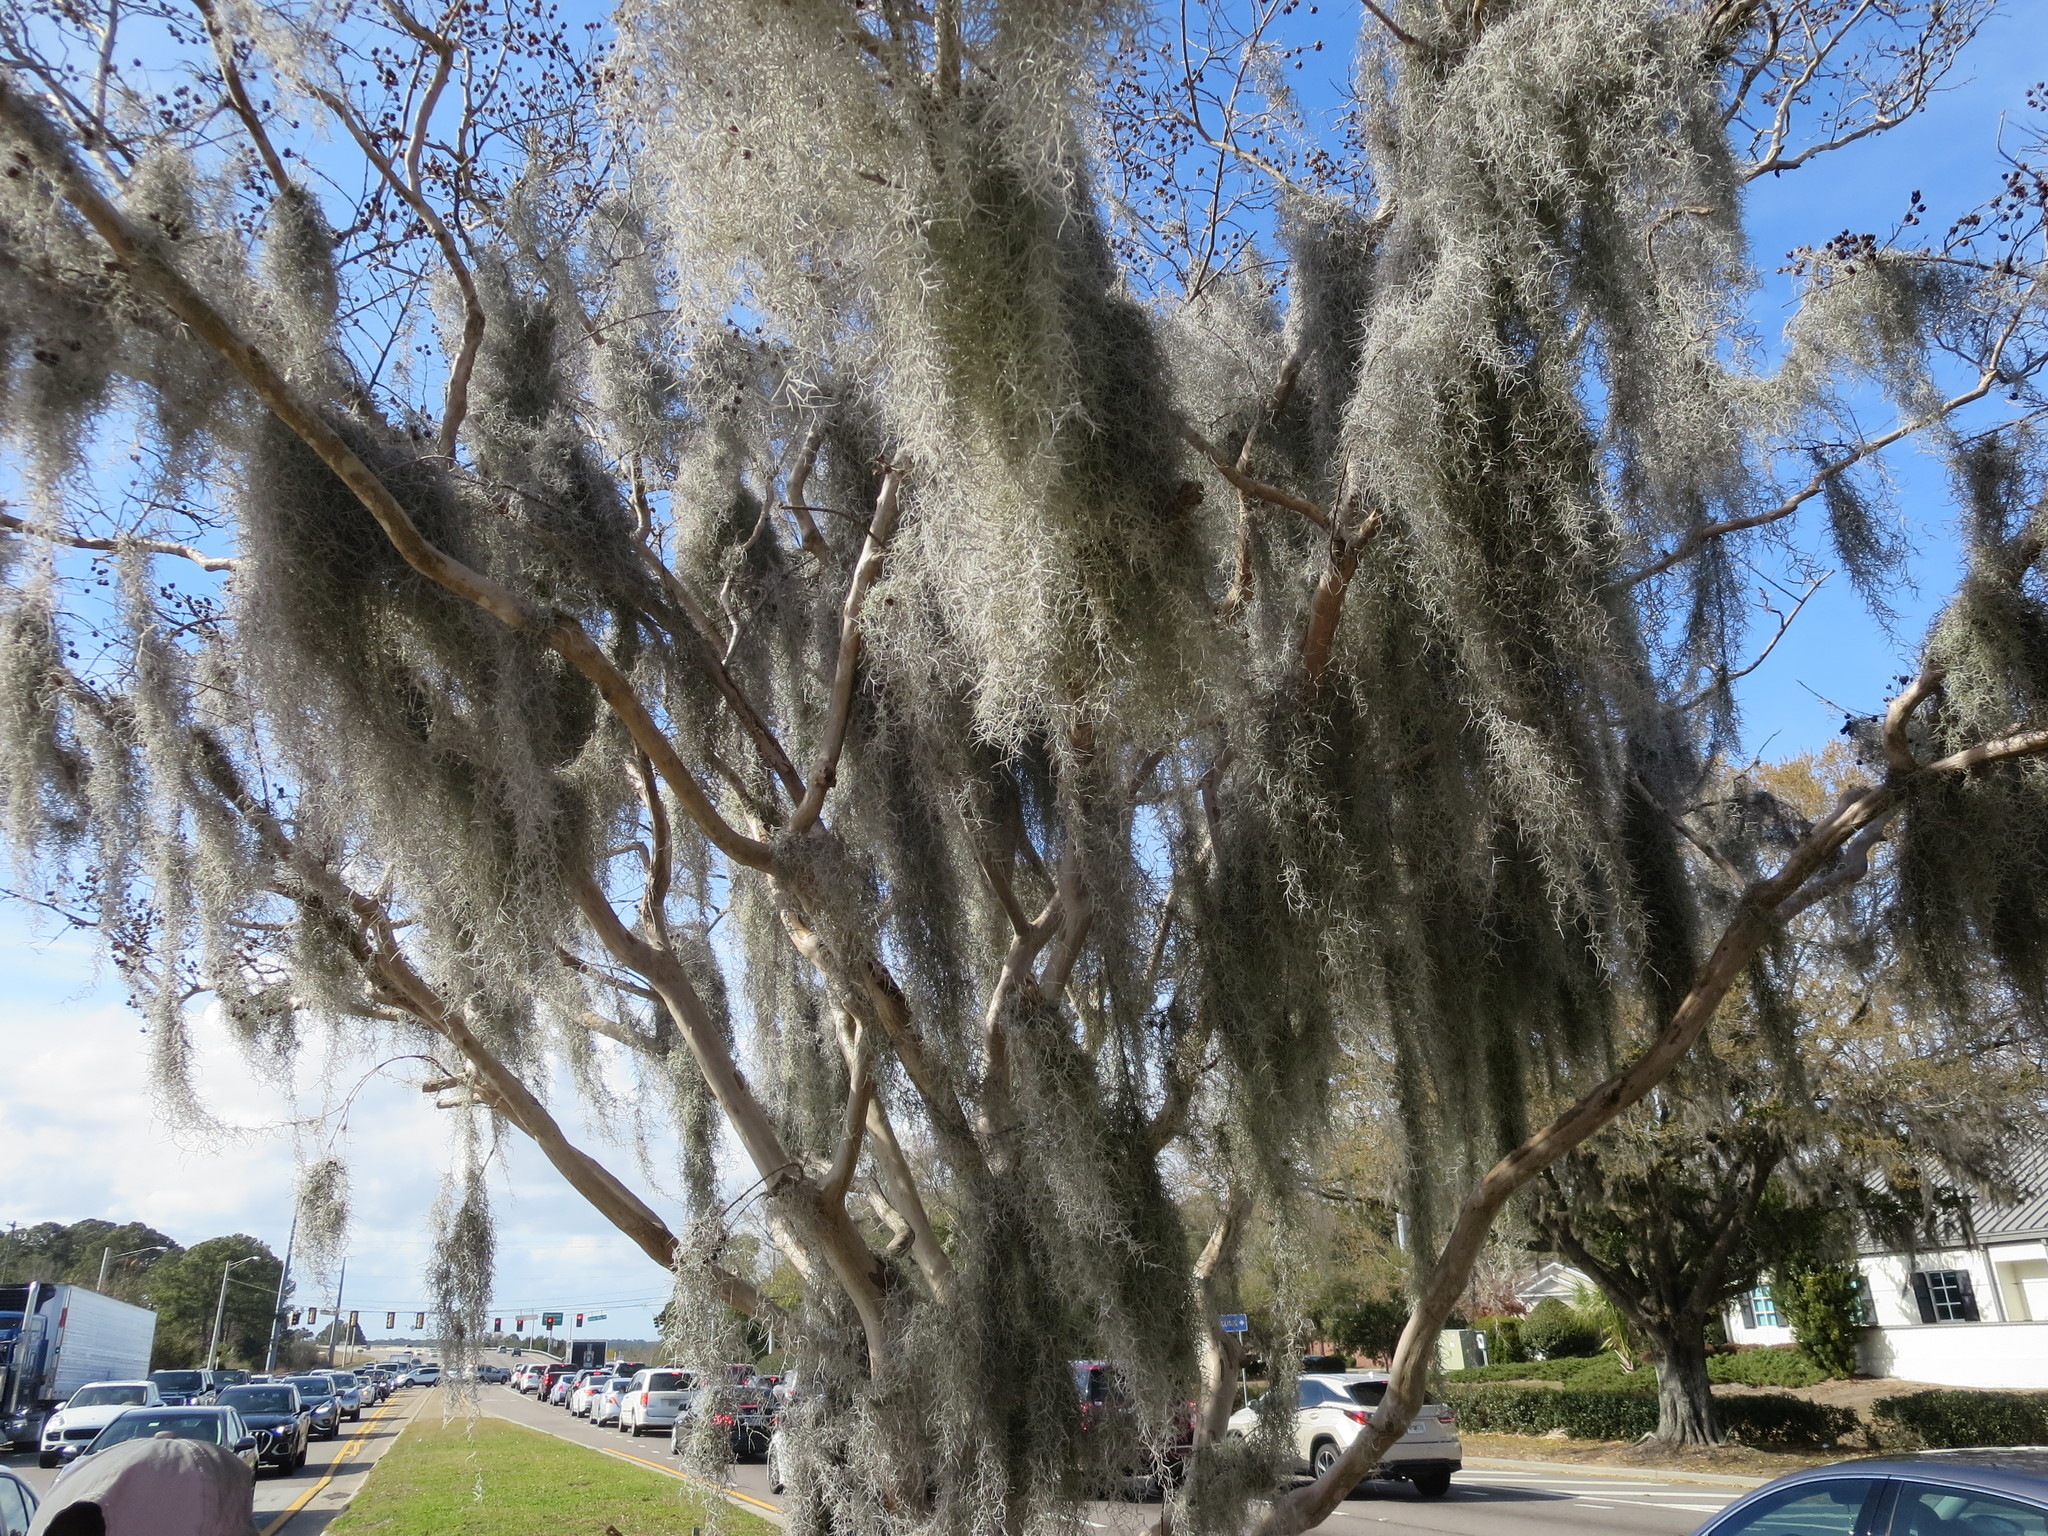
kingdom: Plantae
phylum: Tracheophyta
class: Liliopsida
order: Poales
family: Bromeliaceae
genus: Tillandsia
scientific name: Tillandsia usneoides
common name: Spanish moss
